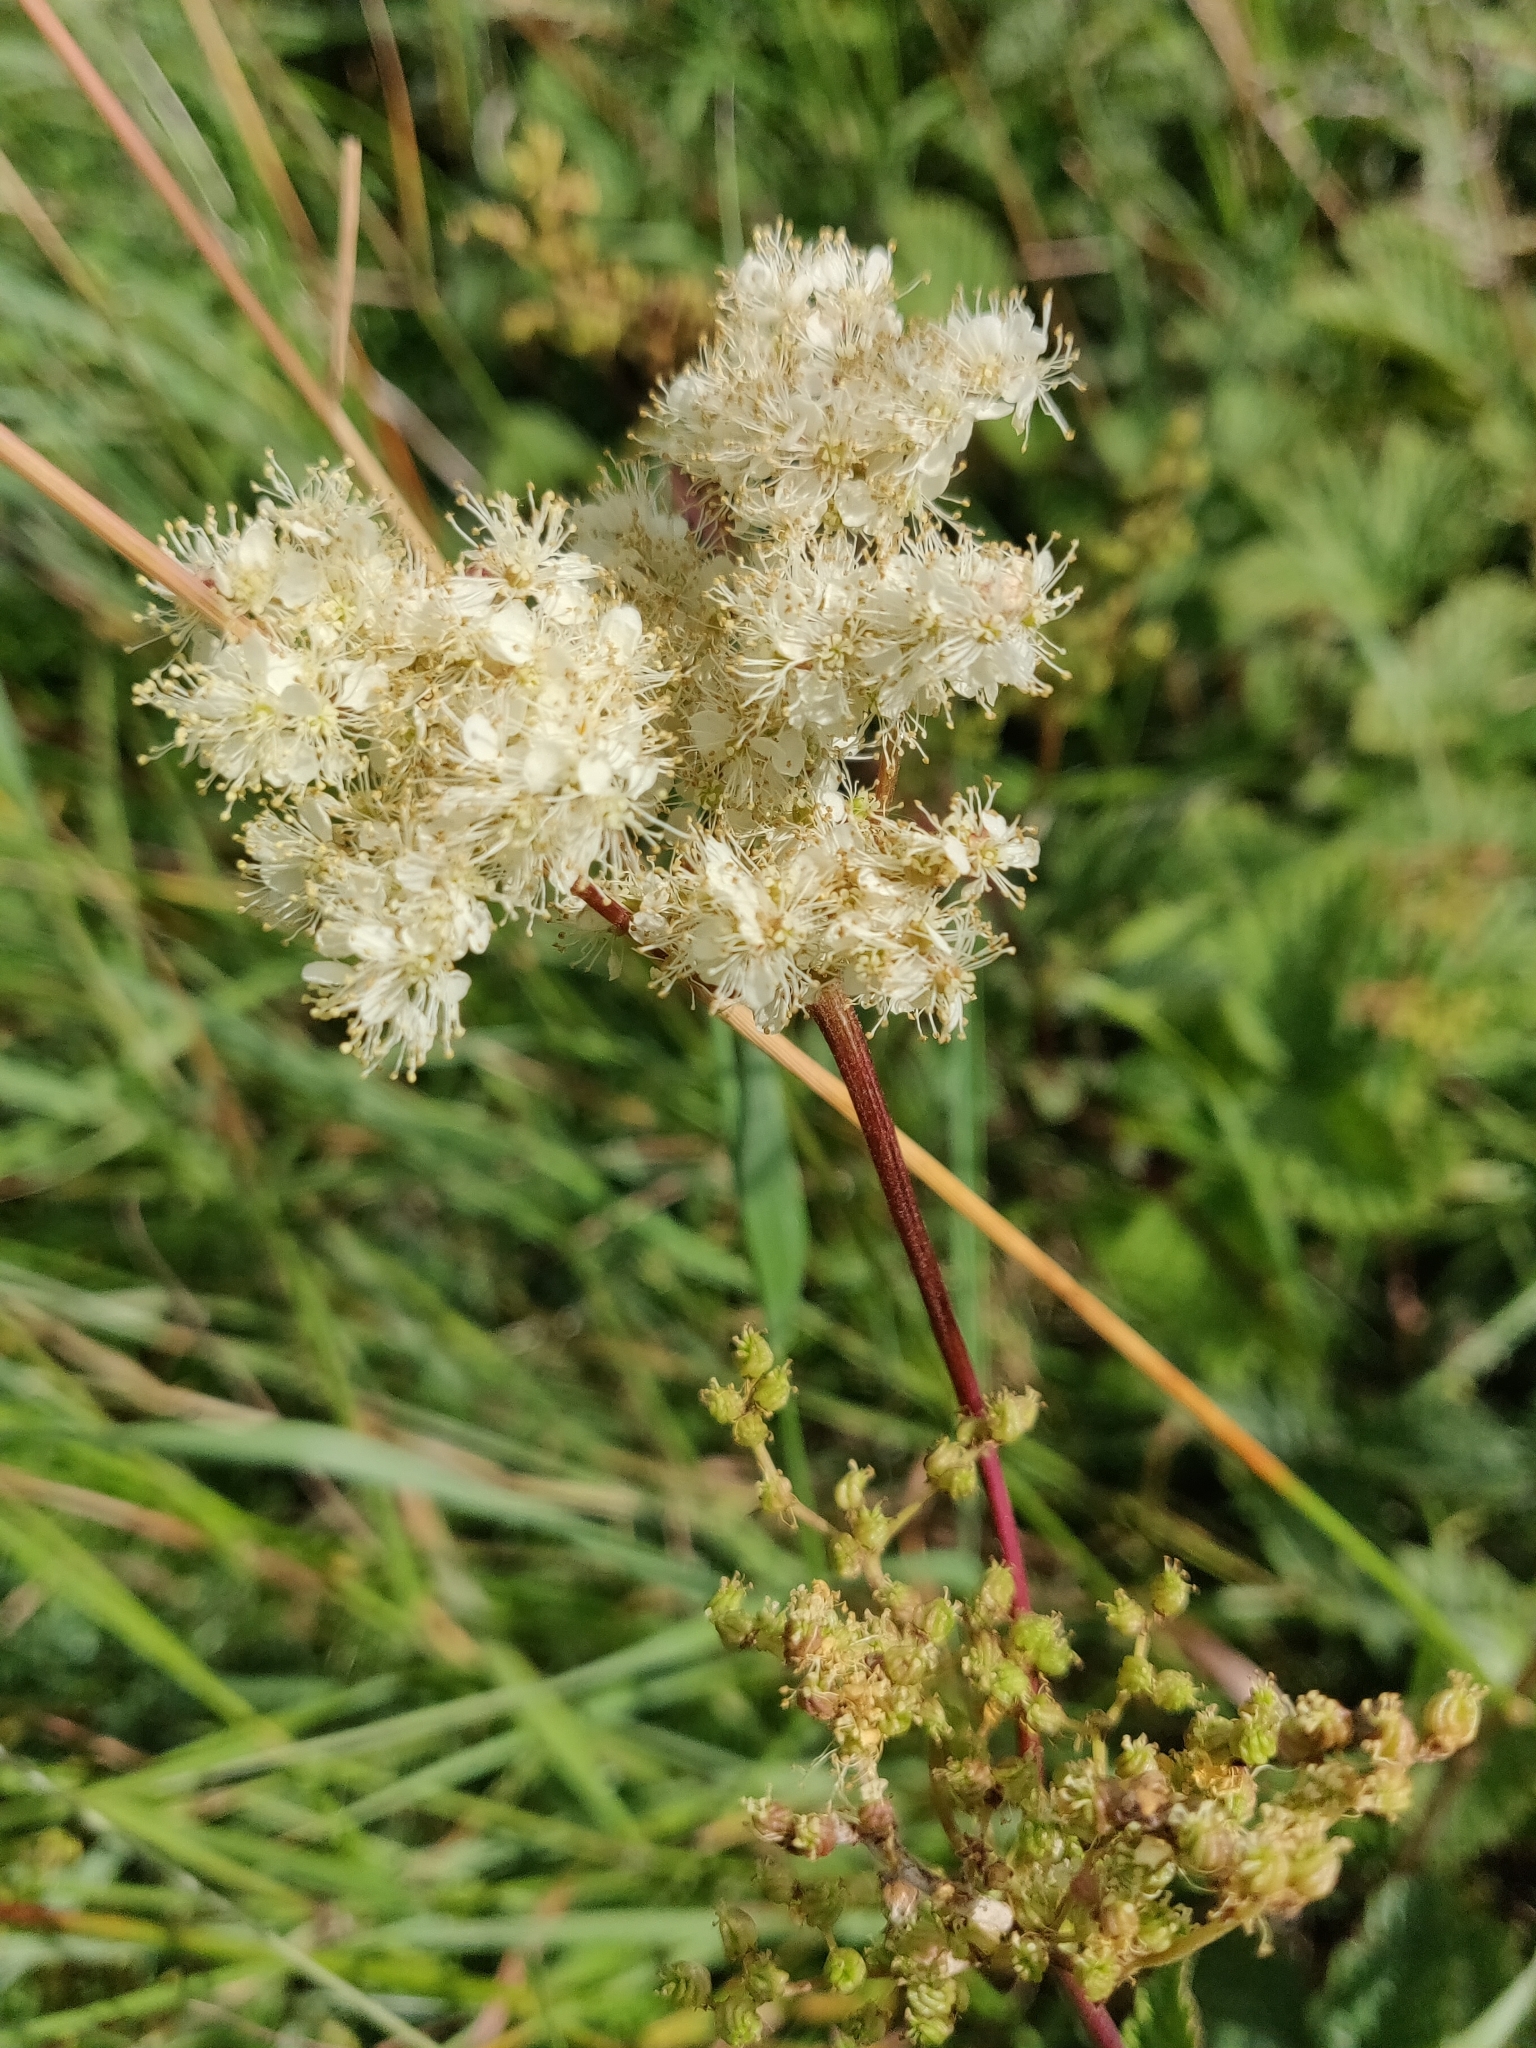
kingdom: Plantae
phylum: Tracheophyta
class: Magnoliopsida
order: Rosales
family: Rosaceae
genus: Filipendula
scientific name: Filipendula ulmaria
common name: Meadowsweet
